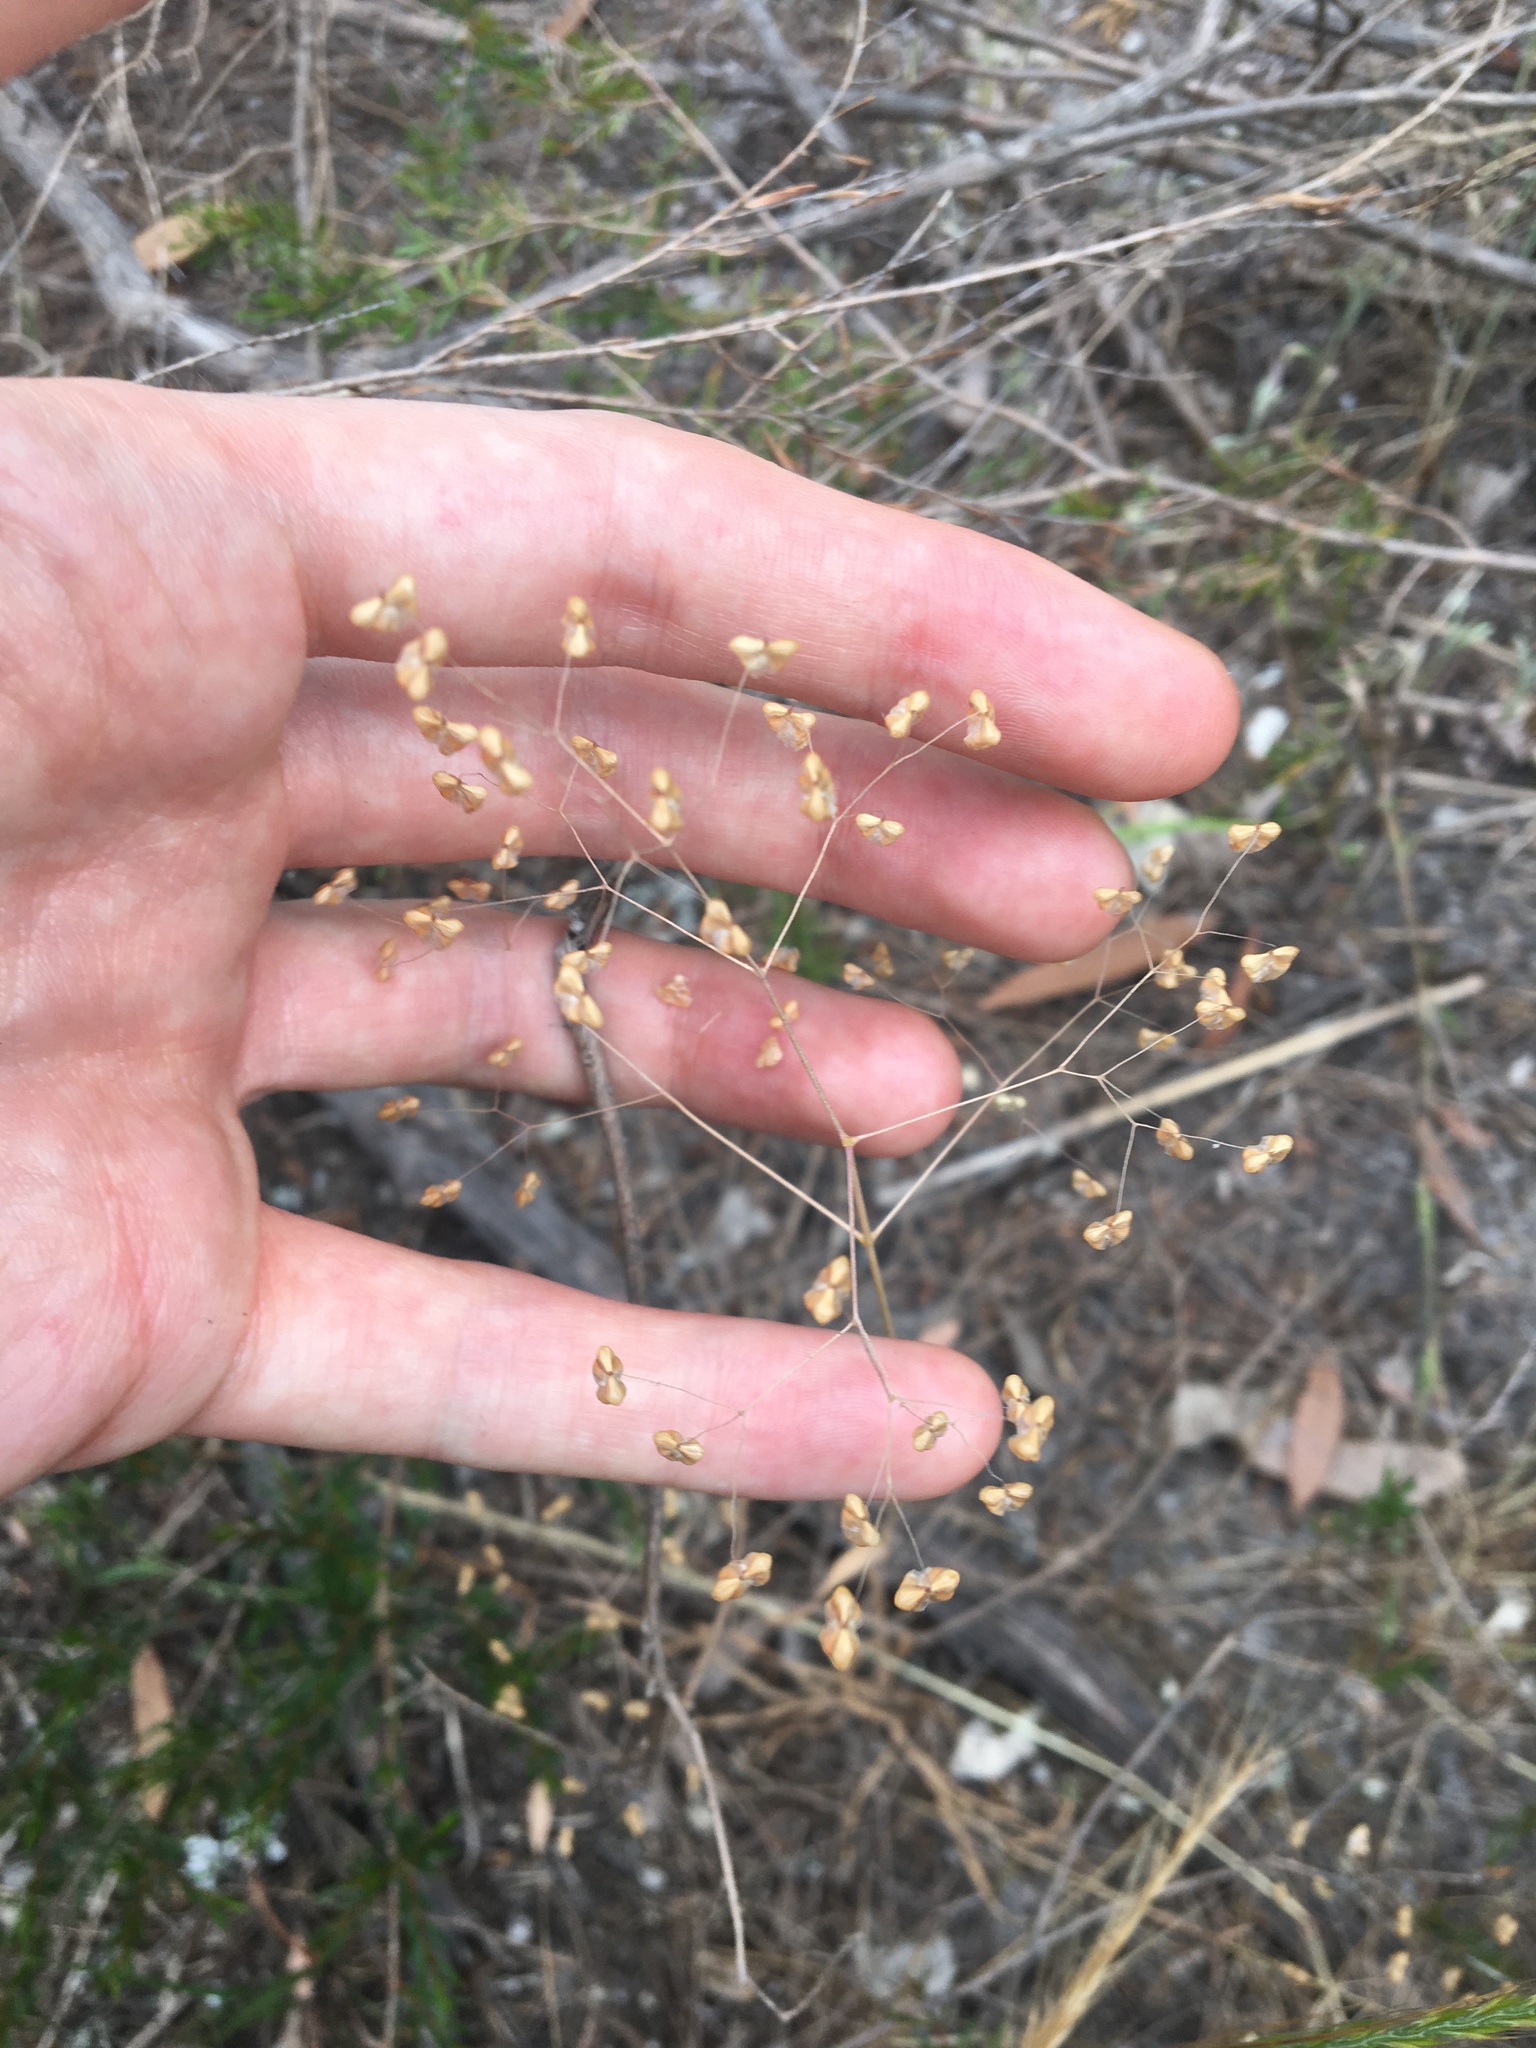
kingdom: Plantae
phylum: Tracheophyta
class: Liliopsida
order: Poales
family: Poaceae
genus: Briza
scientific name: Briza minor
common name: Lesser quaking-grass
